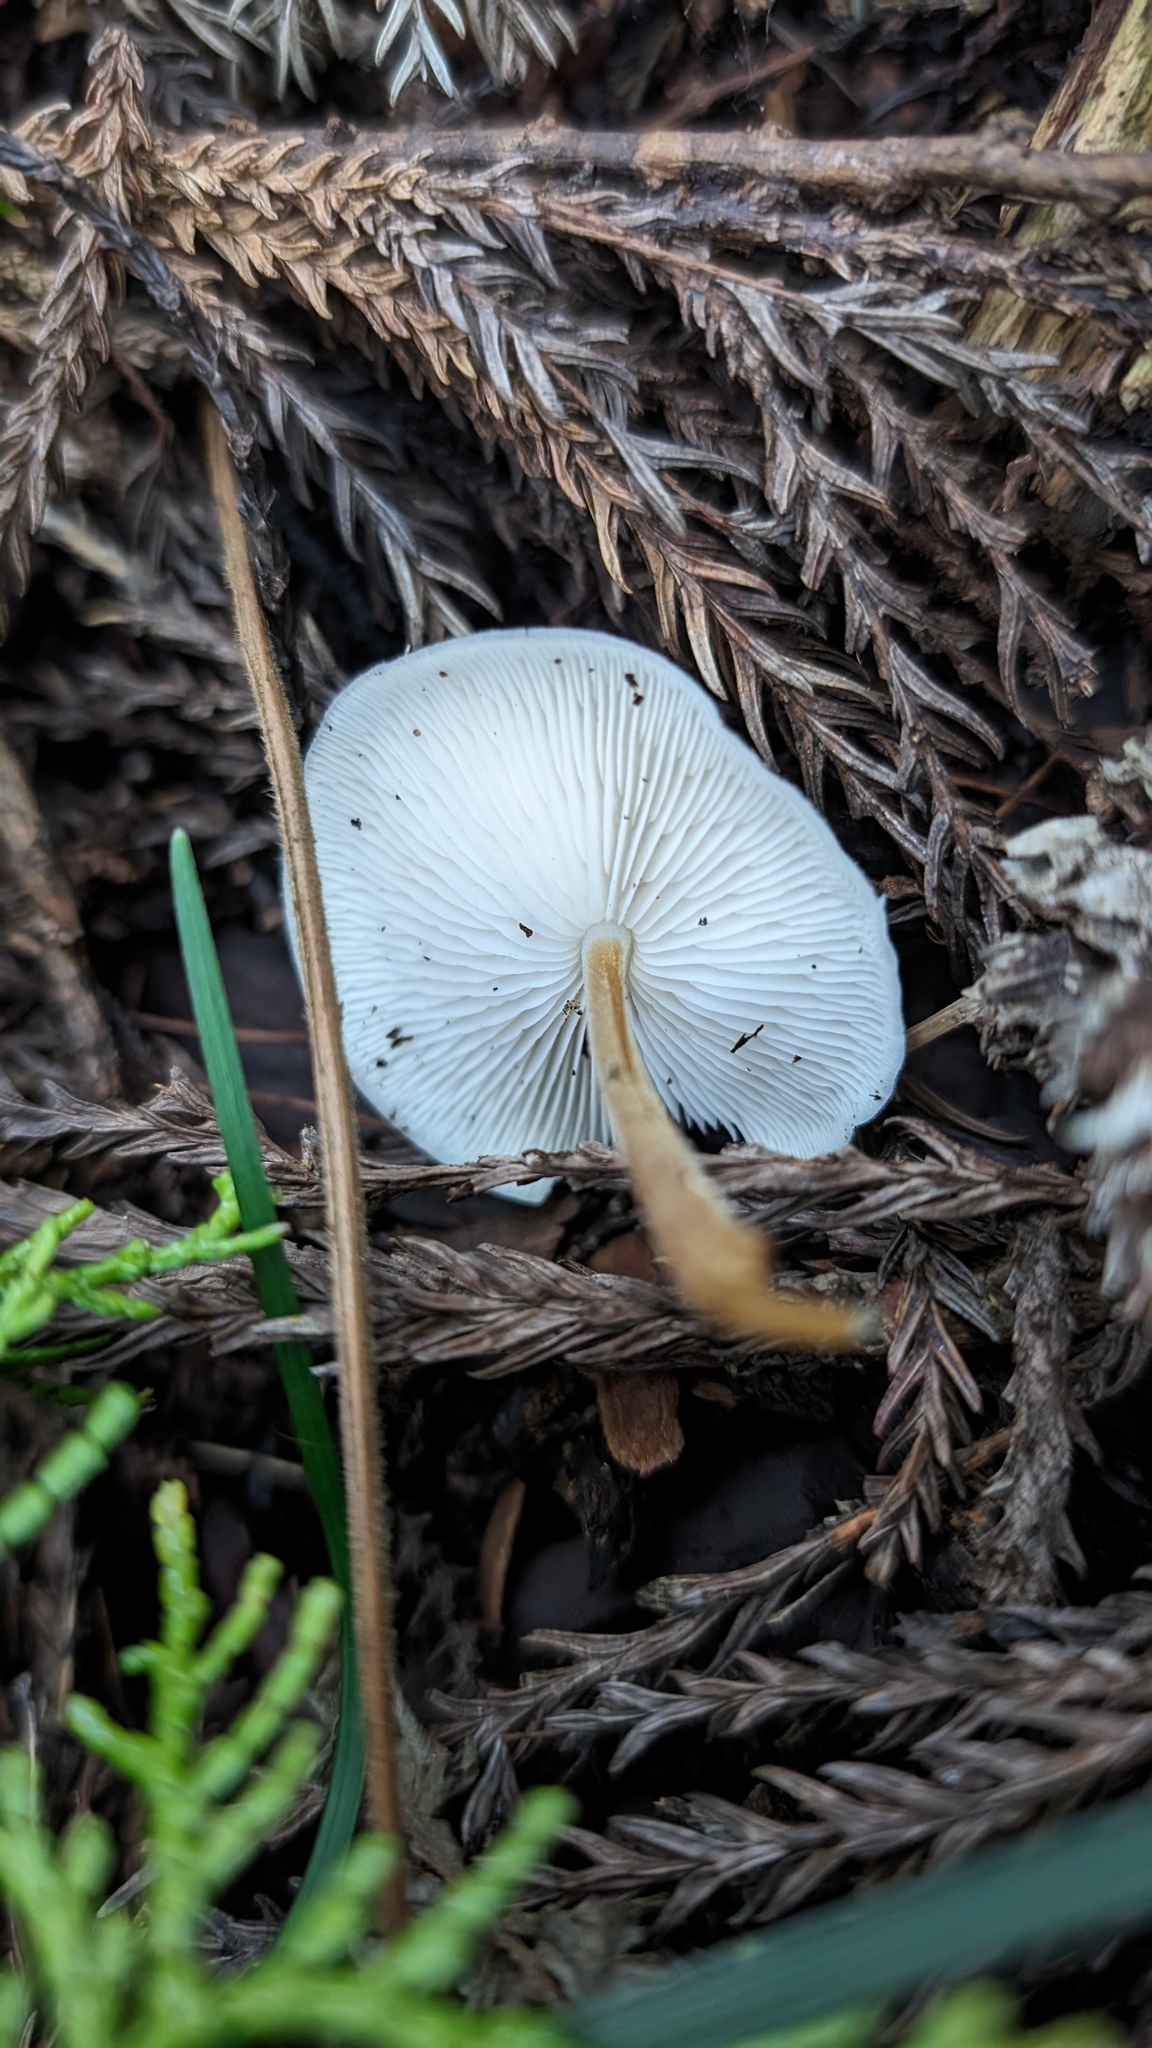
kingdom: Fungi
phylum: Basidiomycota
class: Agaricomycetes
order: Agaricales
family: Physalacriaceae
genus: Strobilurus
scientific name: Strobilurus ohshimae
